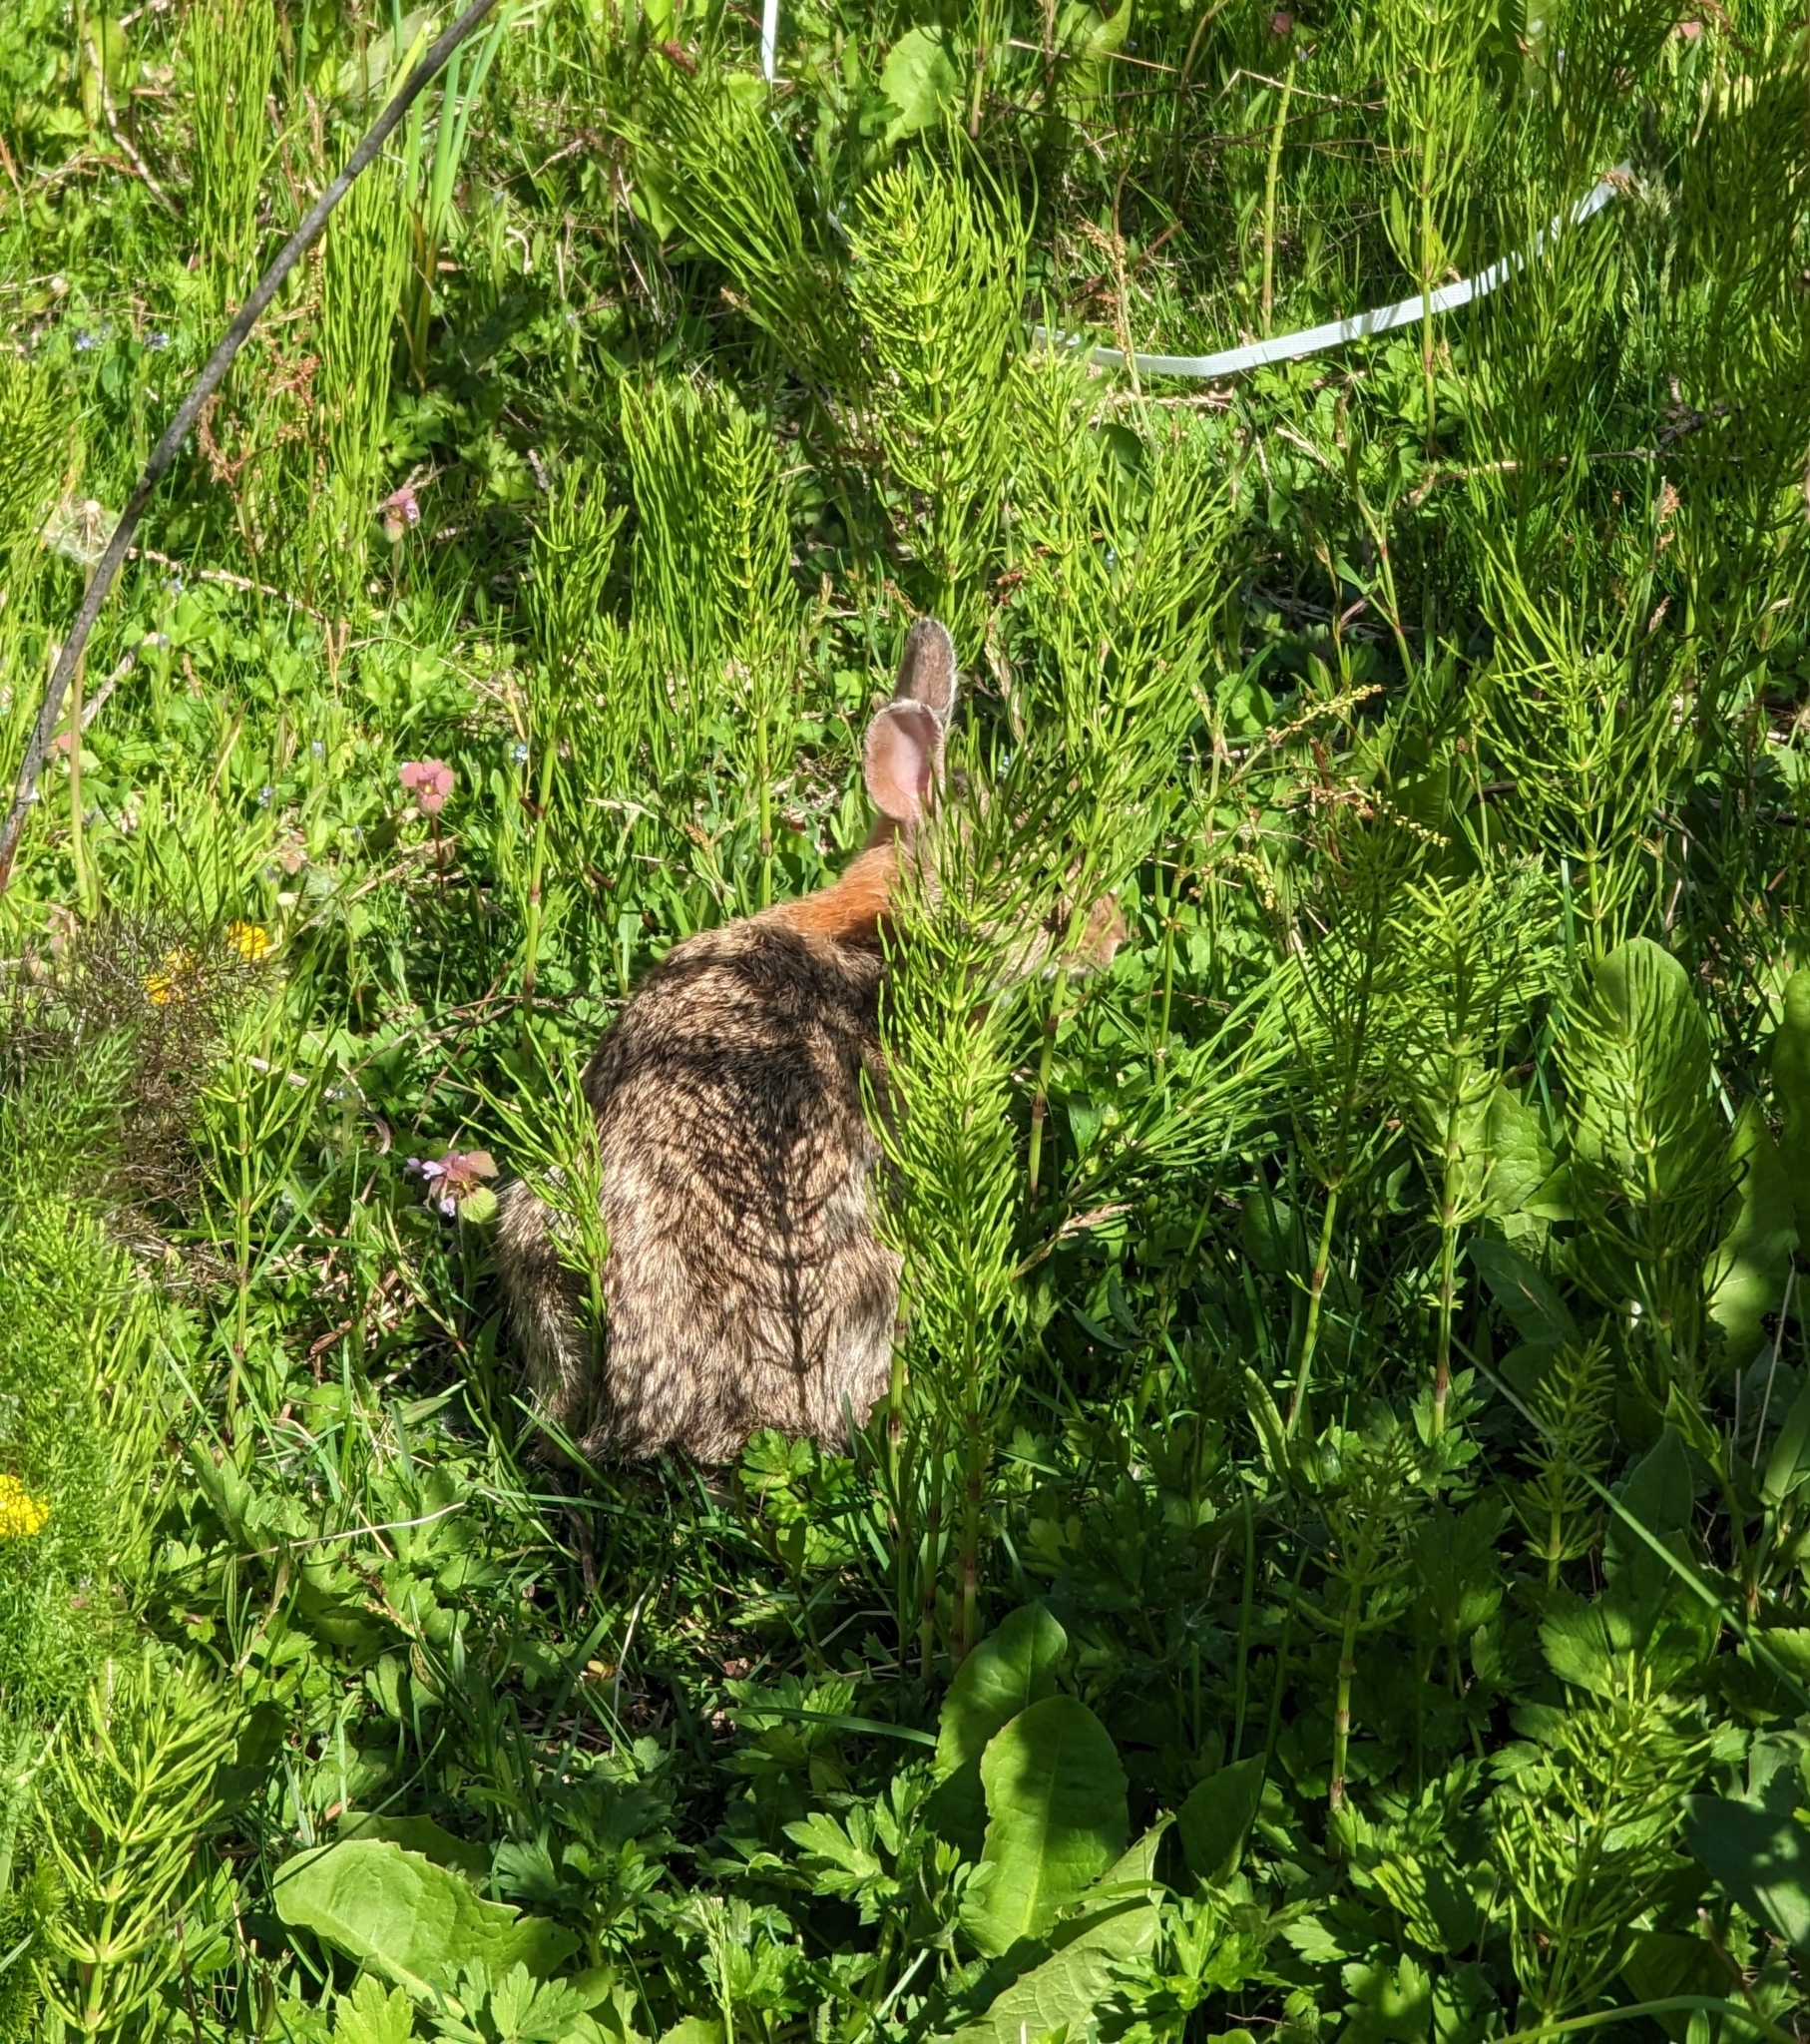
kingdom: Animalia
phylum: Chordata
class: Mammalia
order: Lagomorpha
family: Leporidae
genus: Sylvilagus
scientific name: Sylvilagus floridanus
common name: Eastern cottontail
